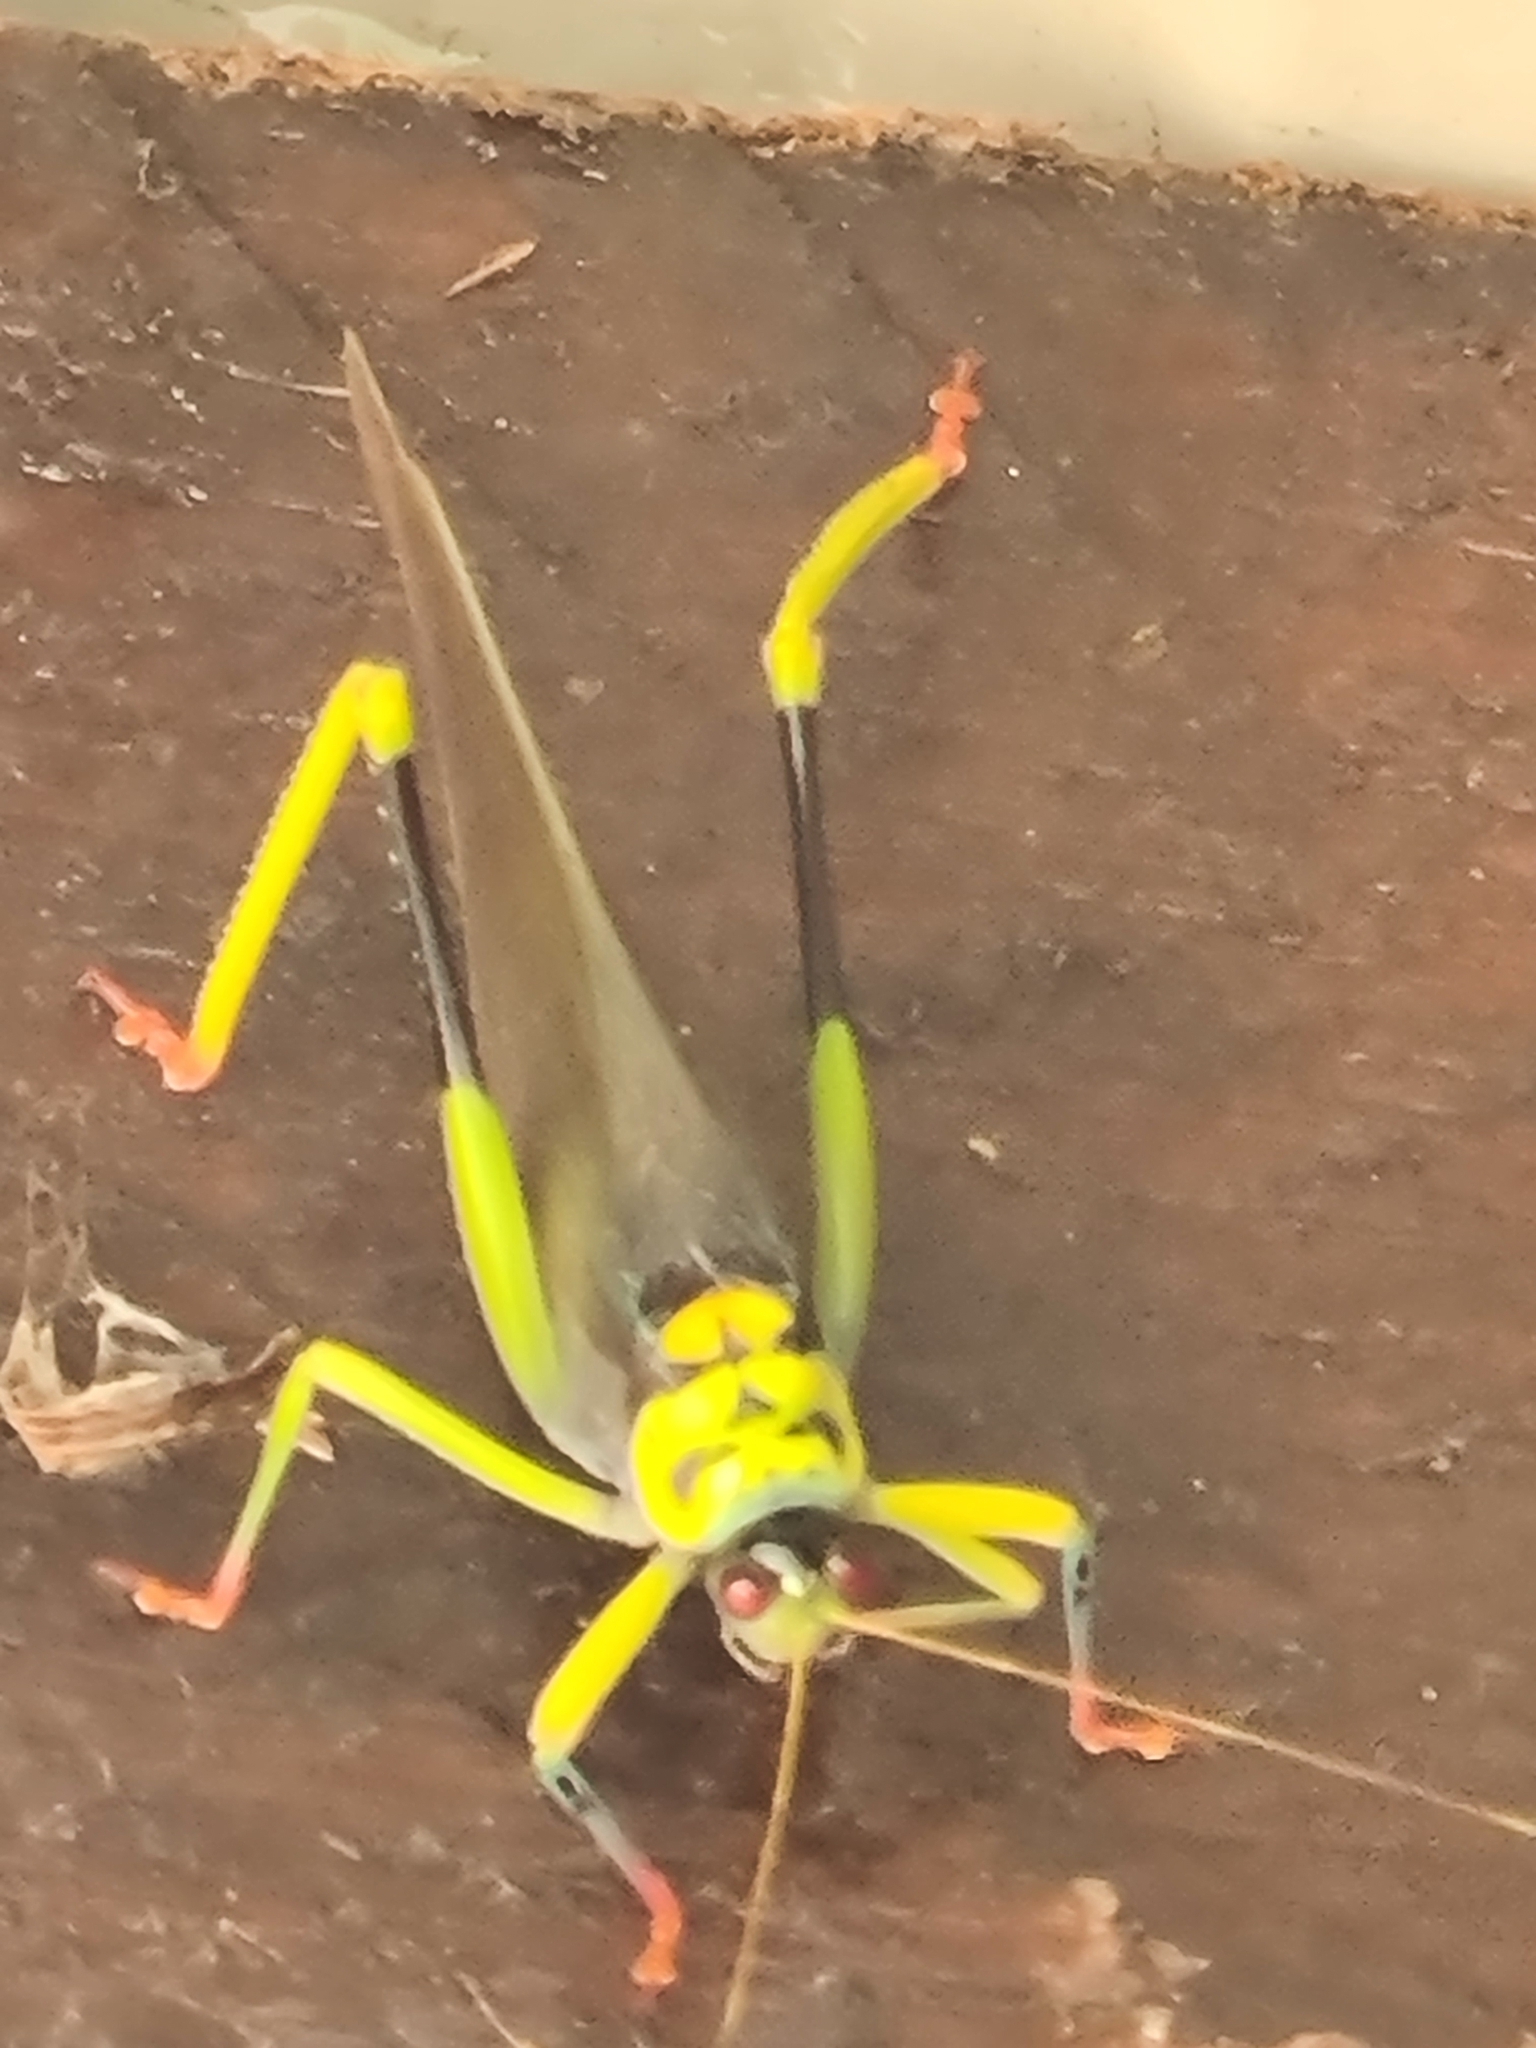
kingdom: Animalia
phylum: Arthropoda
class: Insecta
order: Orthoptera
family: Tettigoniidae
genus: Euceraia
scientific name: Euceraia insignis
